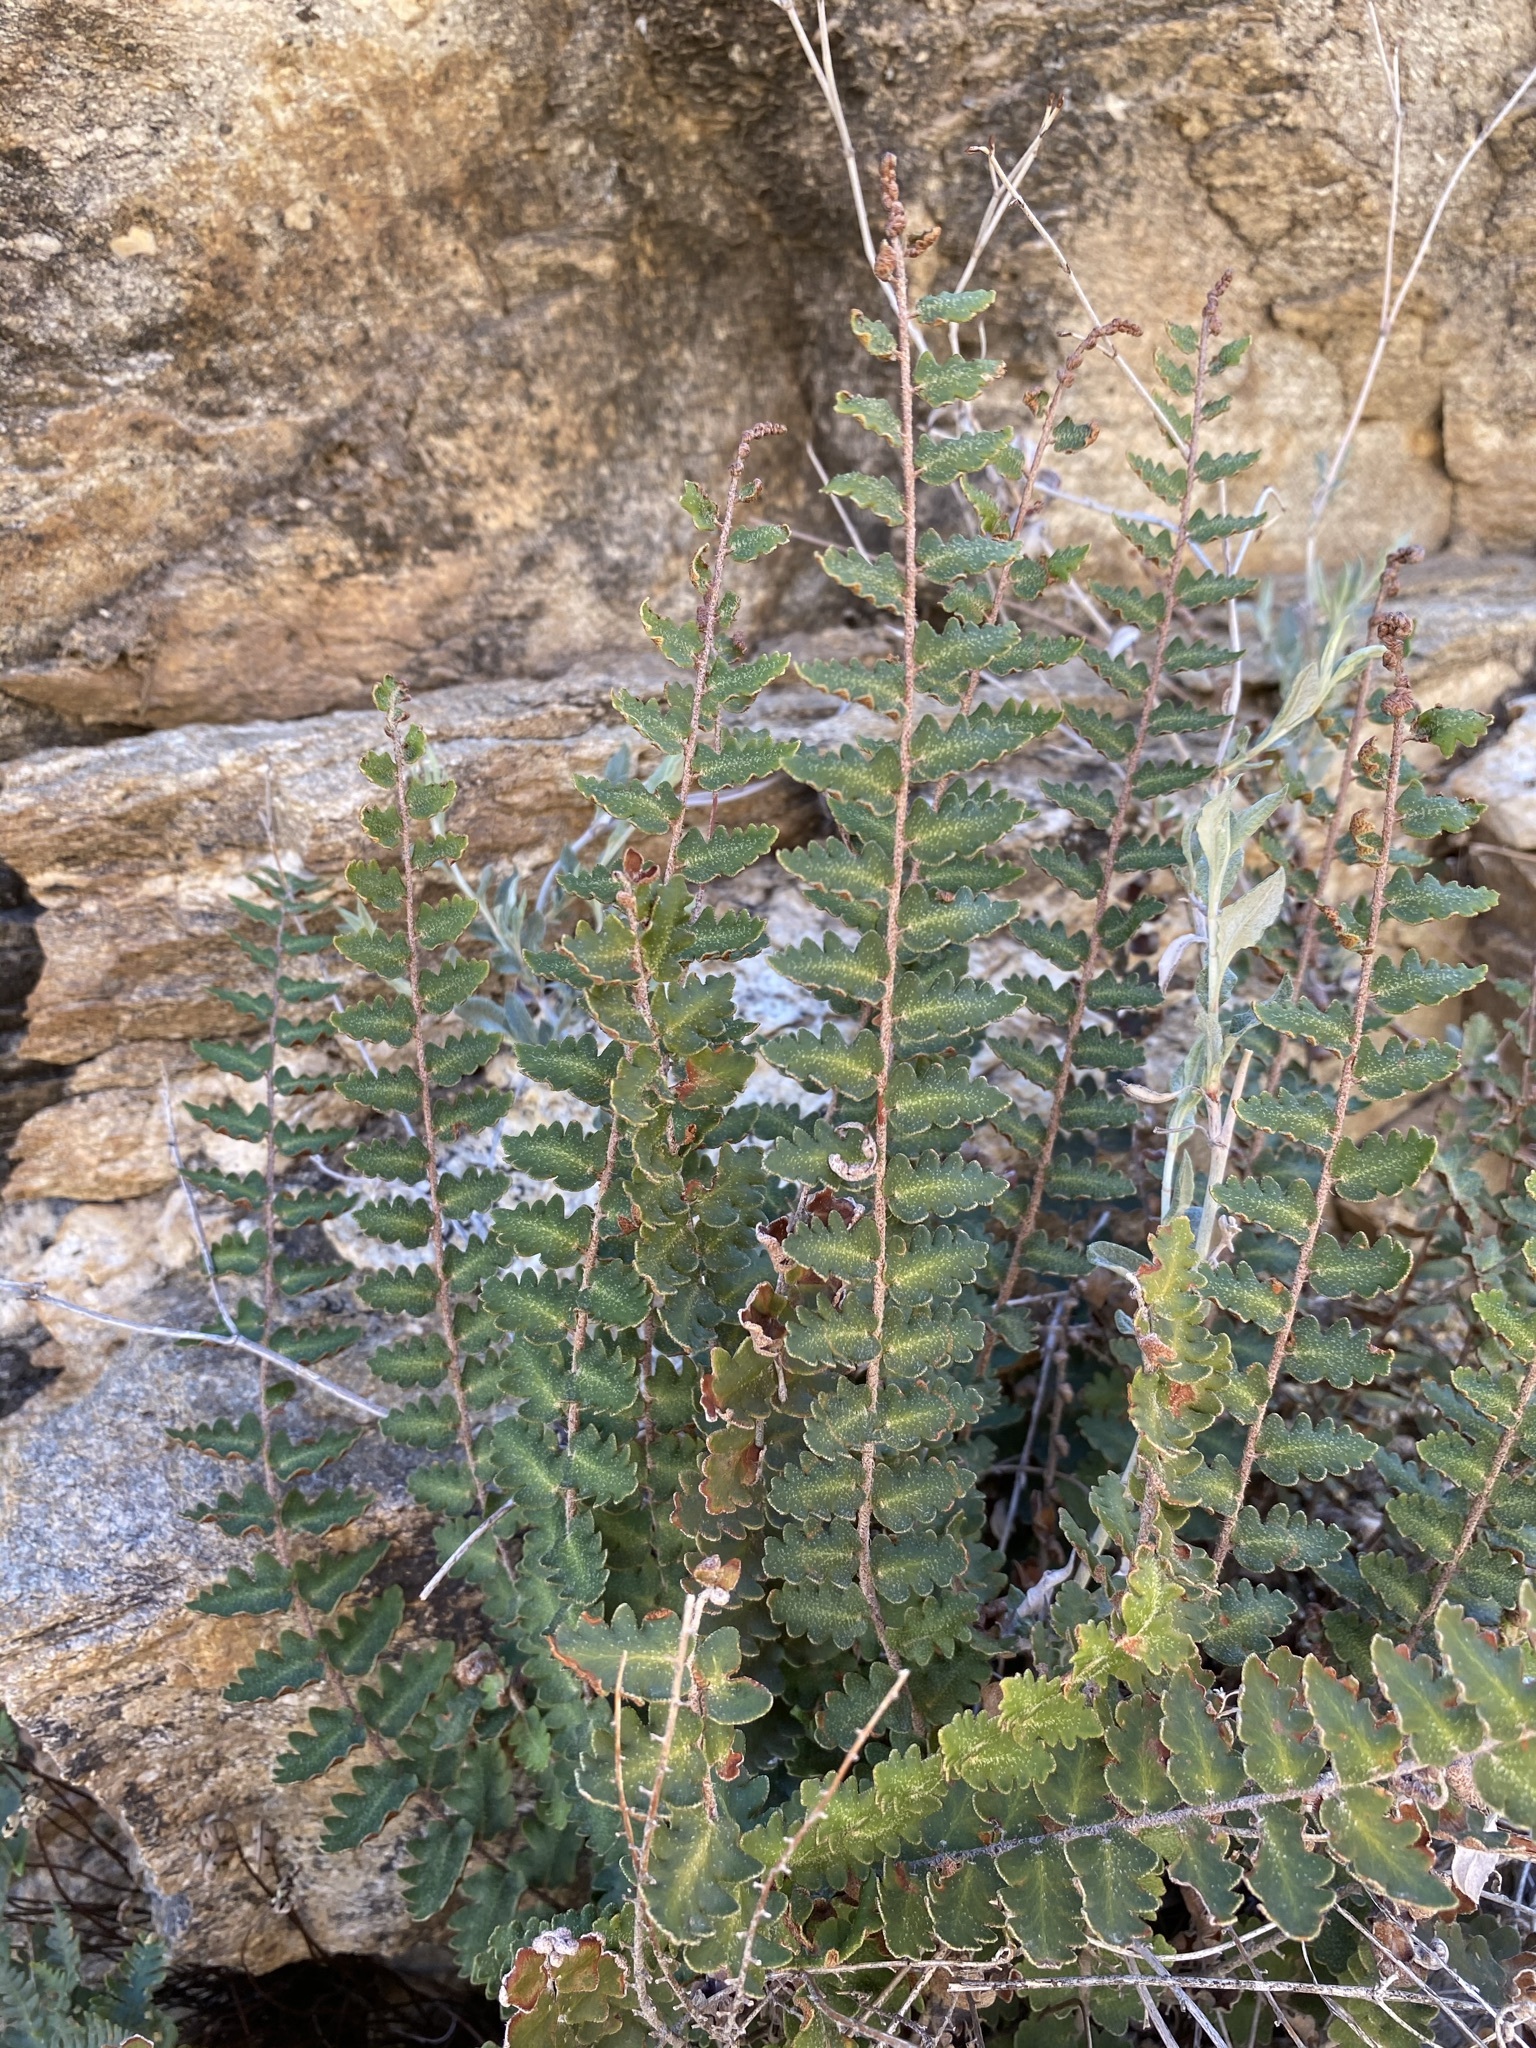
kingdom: Plantae
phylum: Tracheophyta
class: Polypodiopsida
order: Polypodiales
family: Pteridaceae
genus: Astrolepis
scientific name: Astrolepis sinuata
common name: Wavy scaly cloakfern
